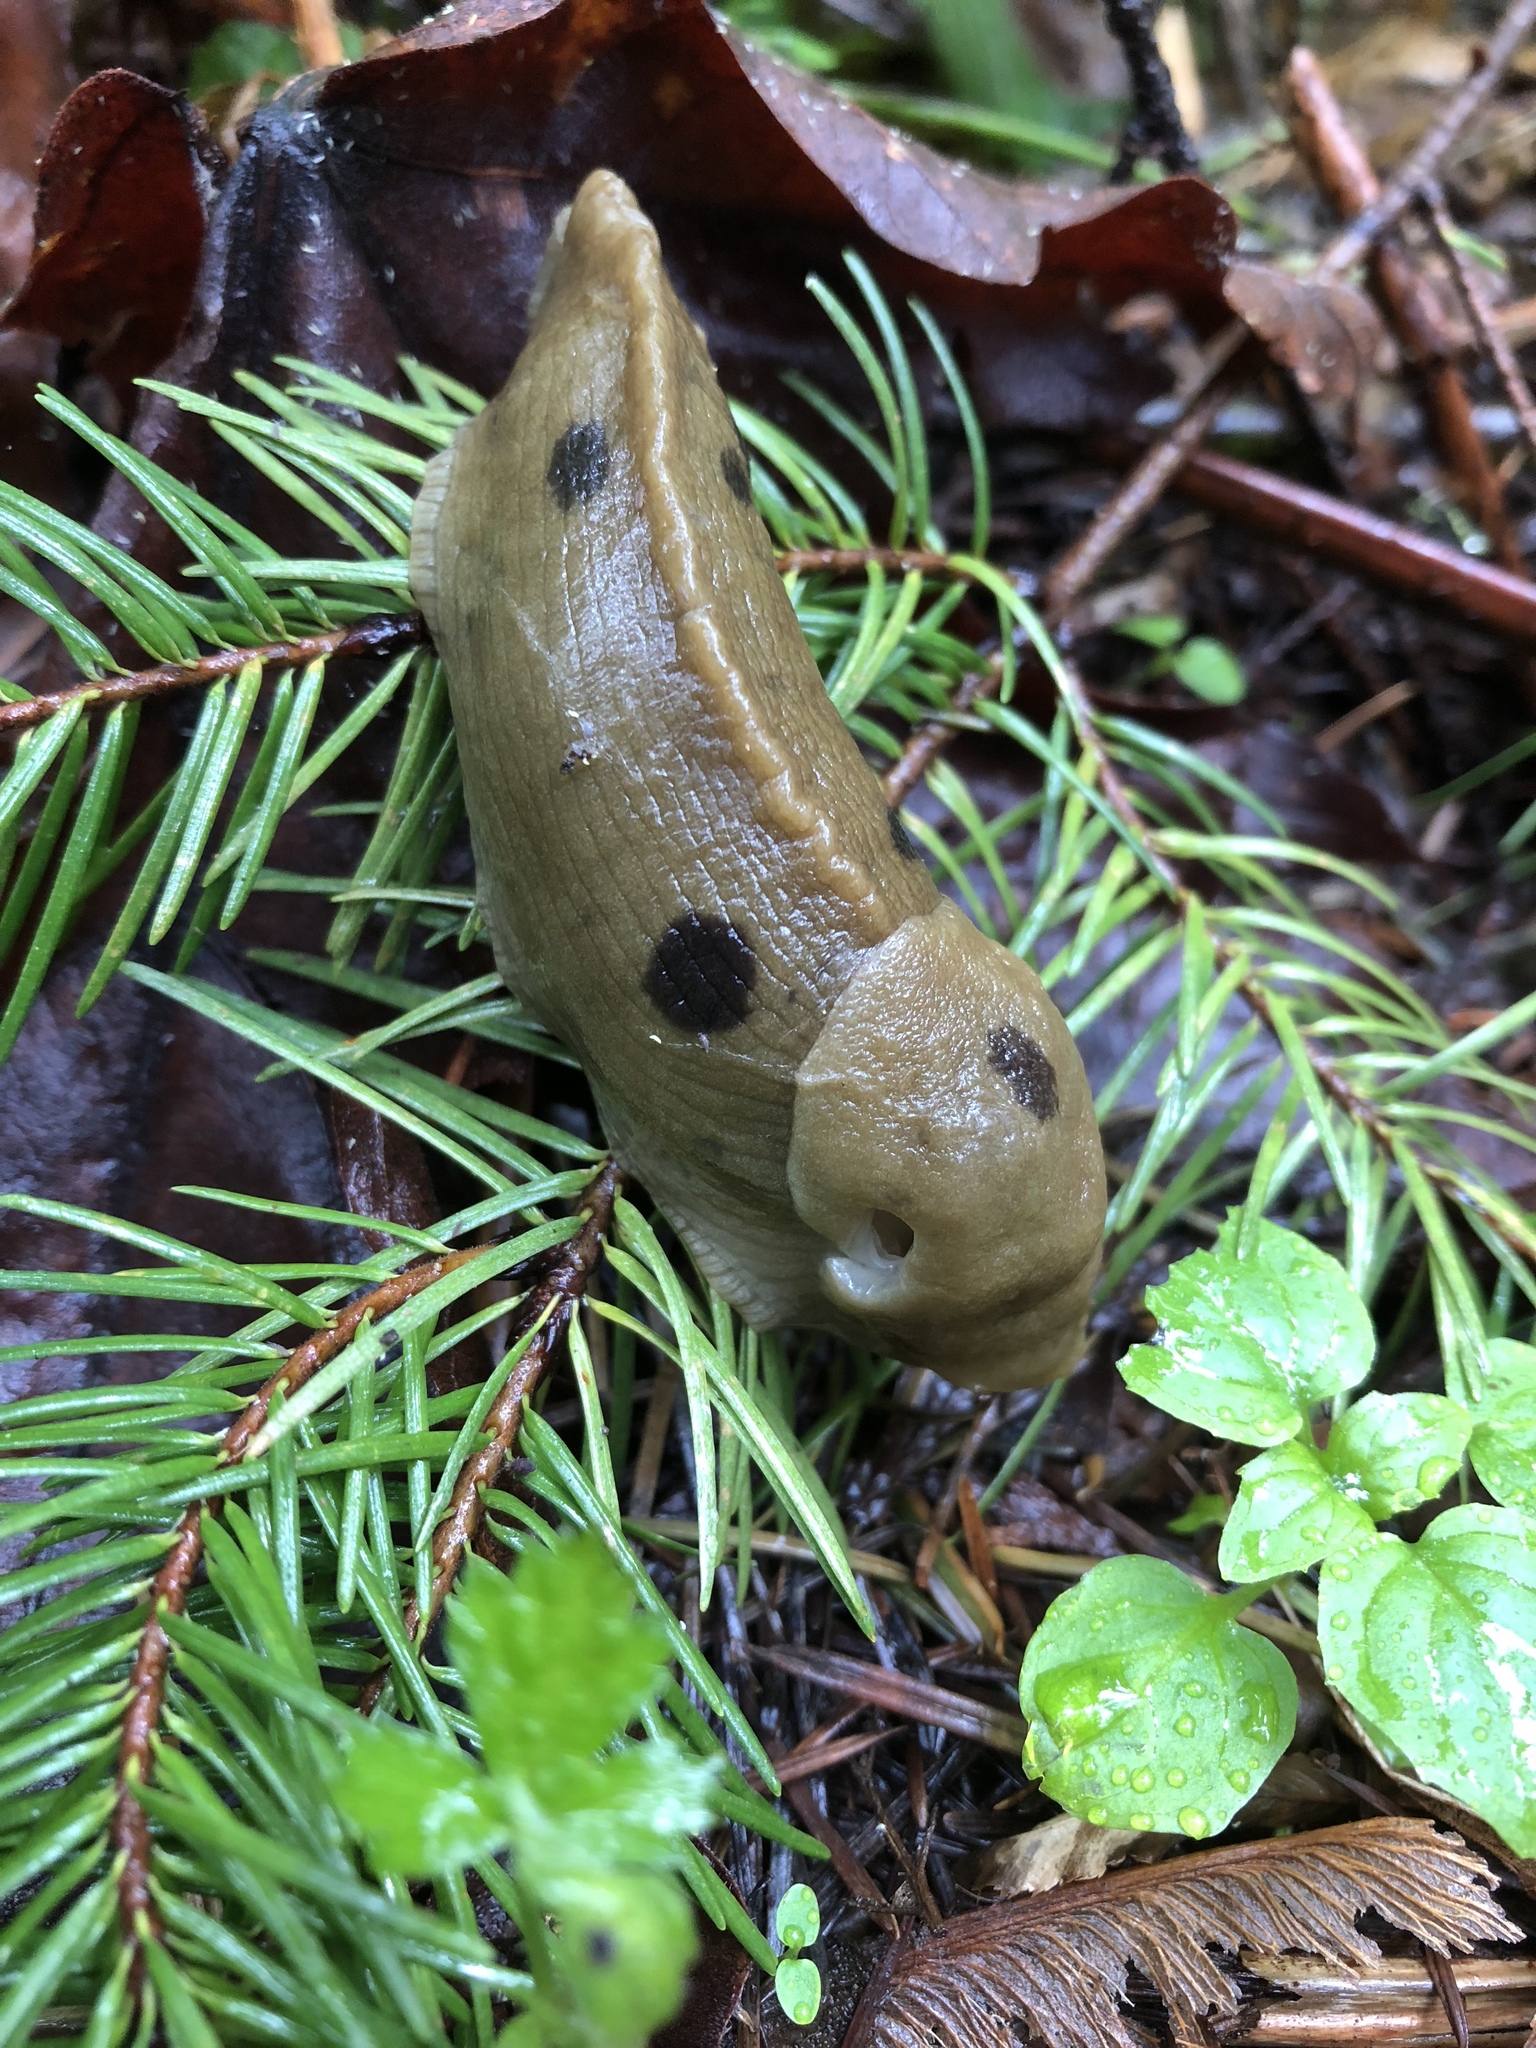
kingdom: Animalia
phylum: Mollusca
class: Gastropoda
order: Stylommatophora
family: Ariolimacidae
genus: Ariolimax
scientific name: Ariolimax columbianus
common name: Pacific banana slug
